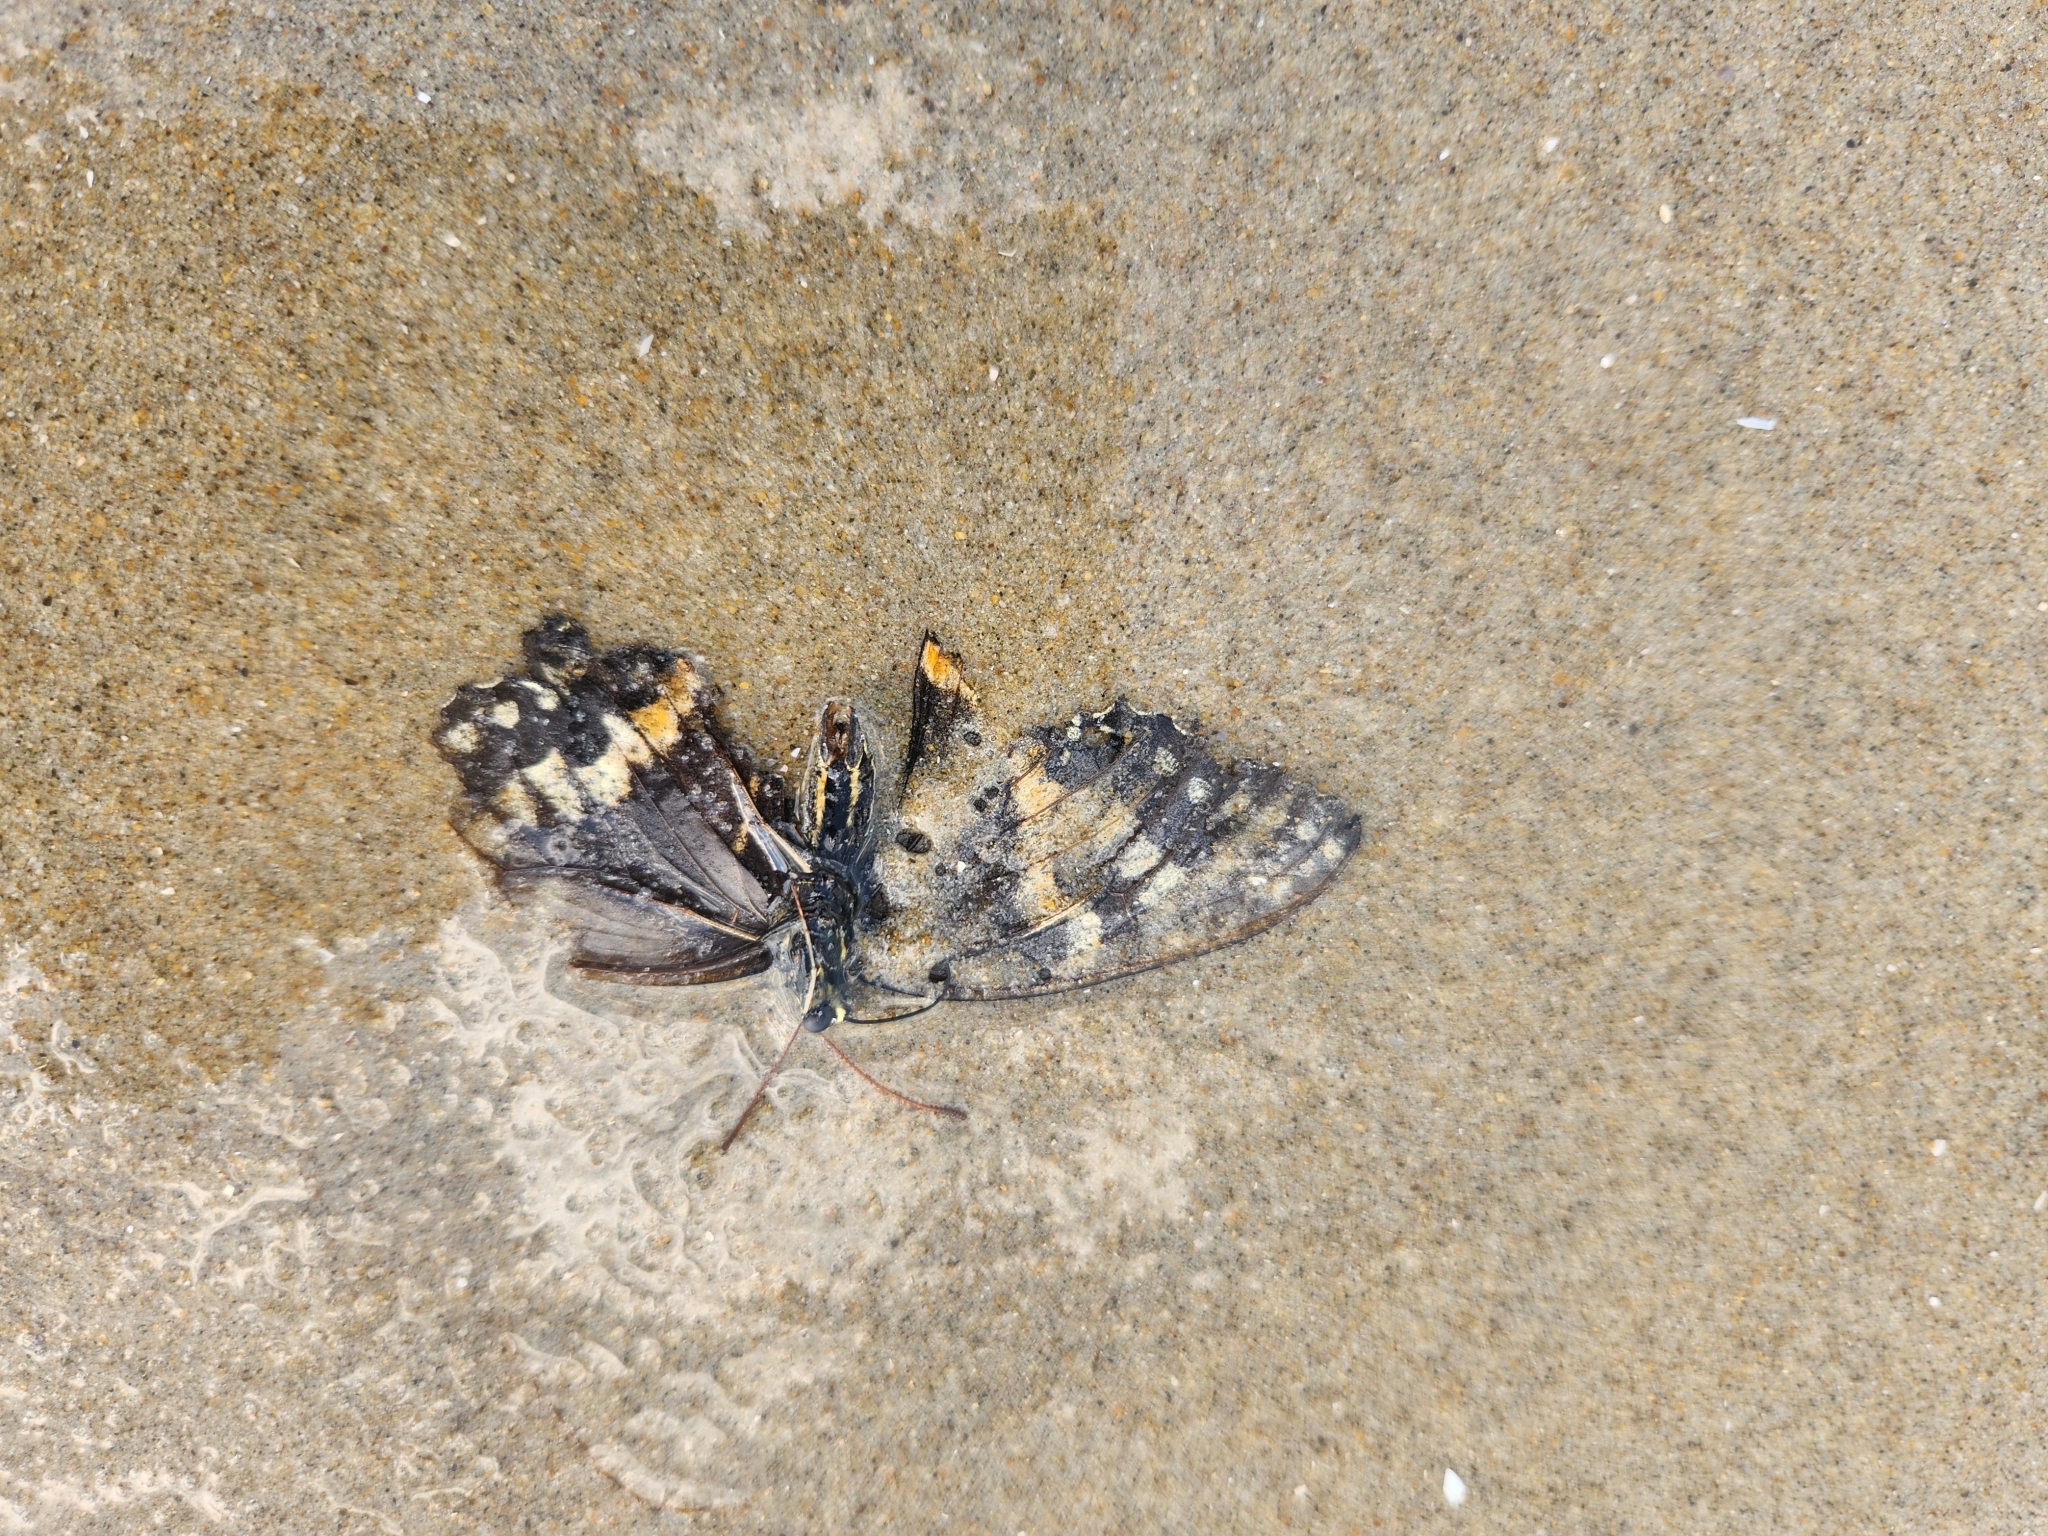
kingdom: Animalia
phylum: Arthropoda
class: Insecta
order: Lepidoptera
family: Papilionidae
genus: Papilio
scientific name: Papilio glaucus
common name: Tiger swallowtail
